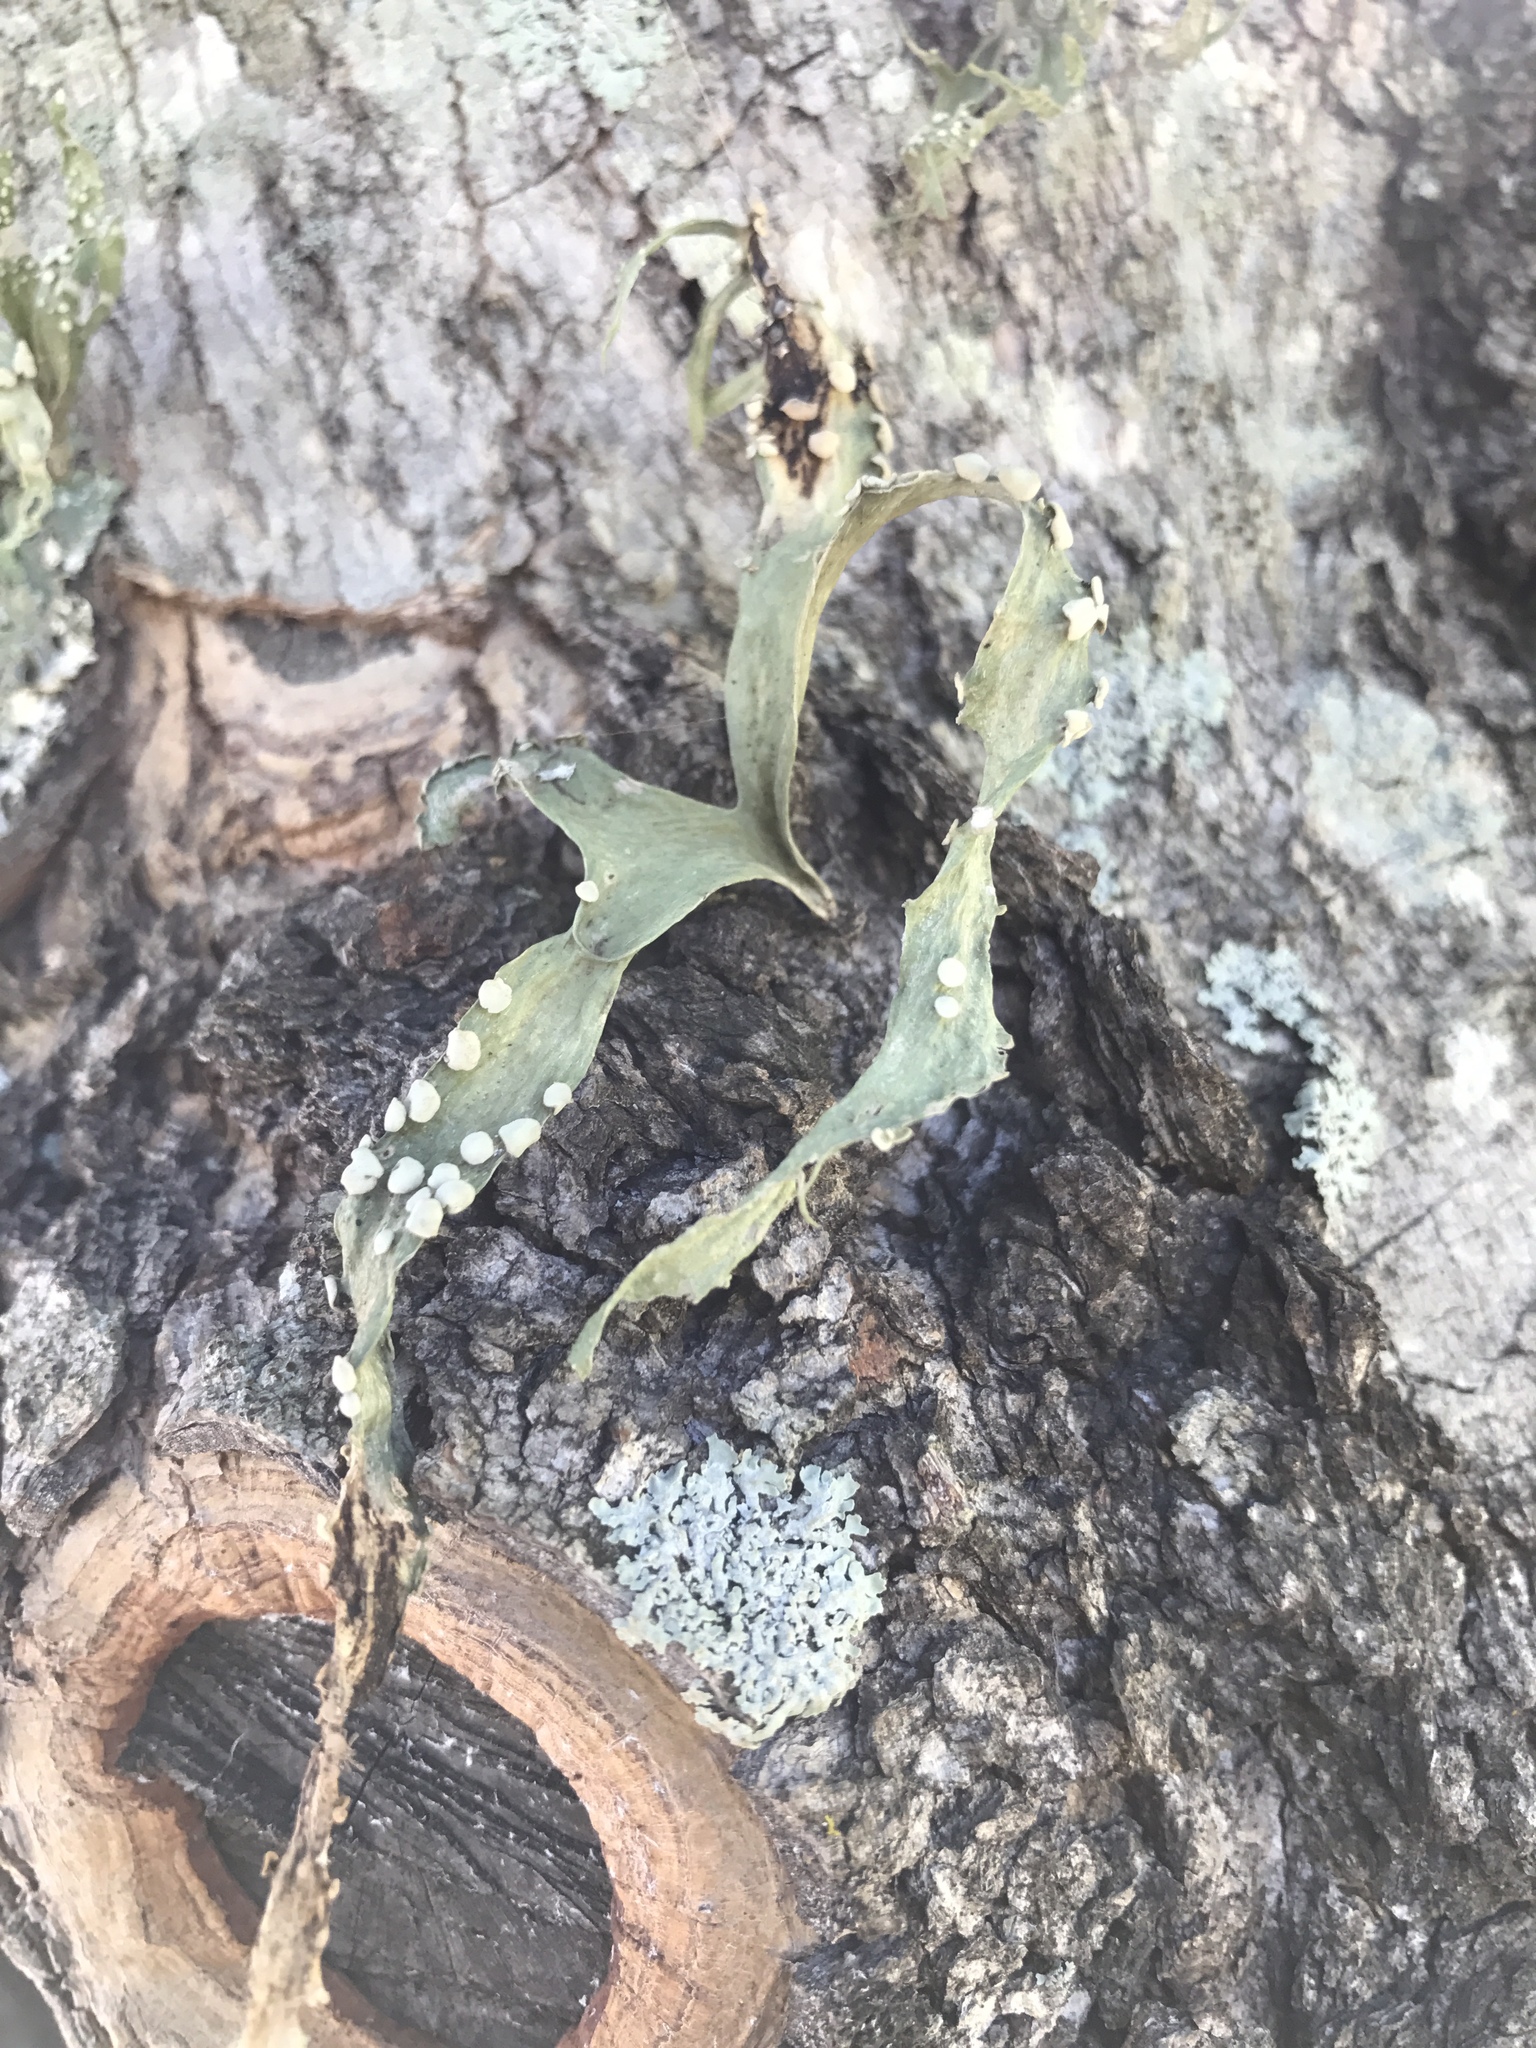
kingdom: Fungi
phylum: Ascomycota
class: Lecanoromycetes
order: Lecanorales
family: Ramalinaceae
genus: Ramalina
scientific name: Ramalina celastri
